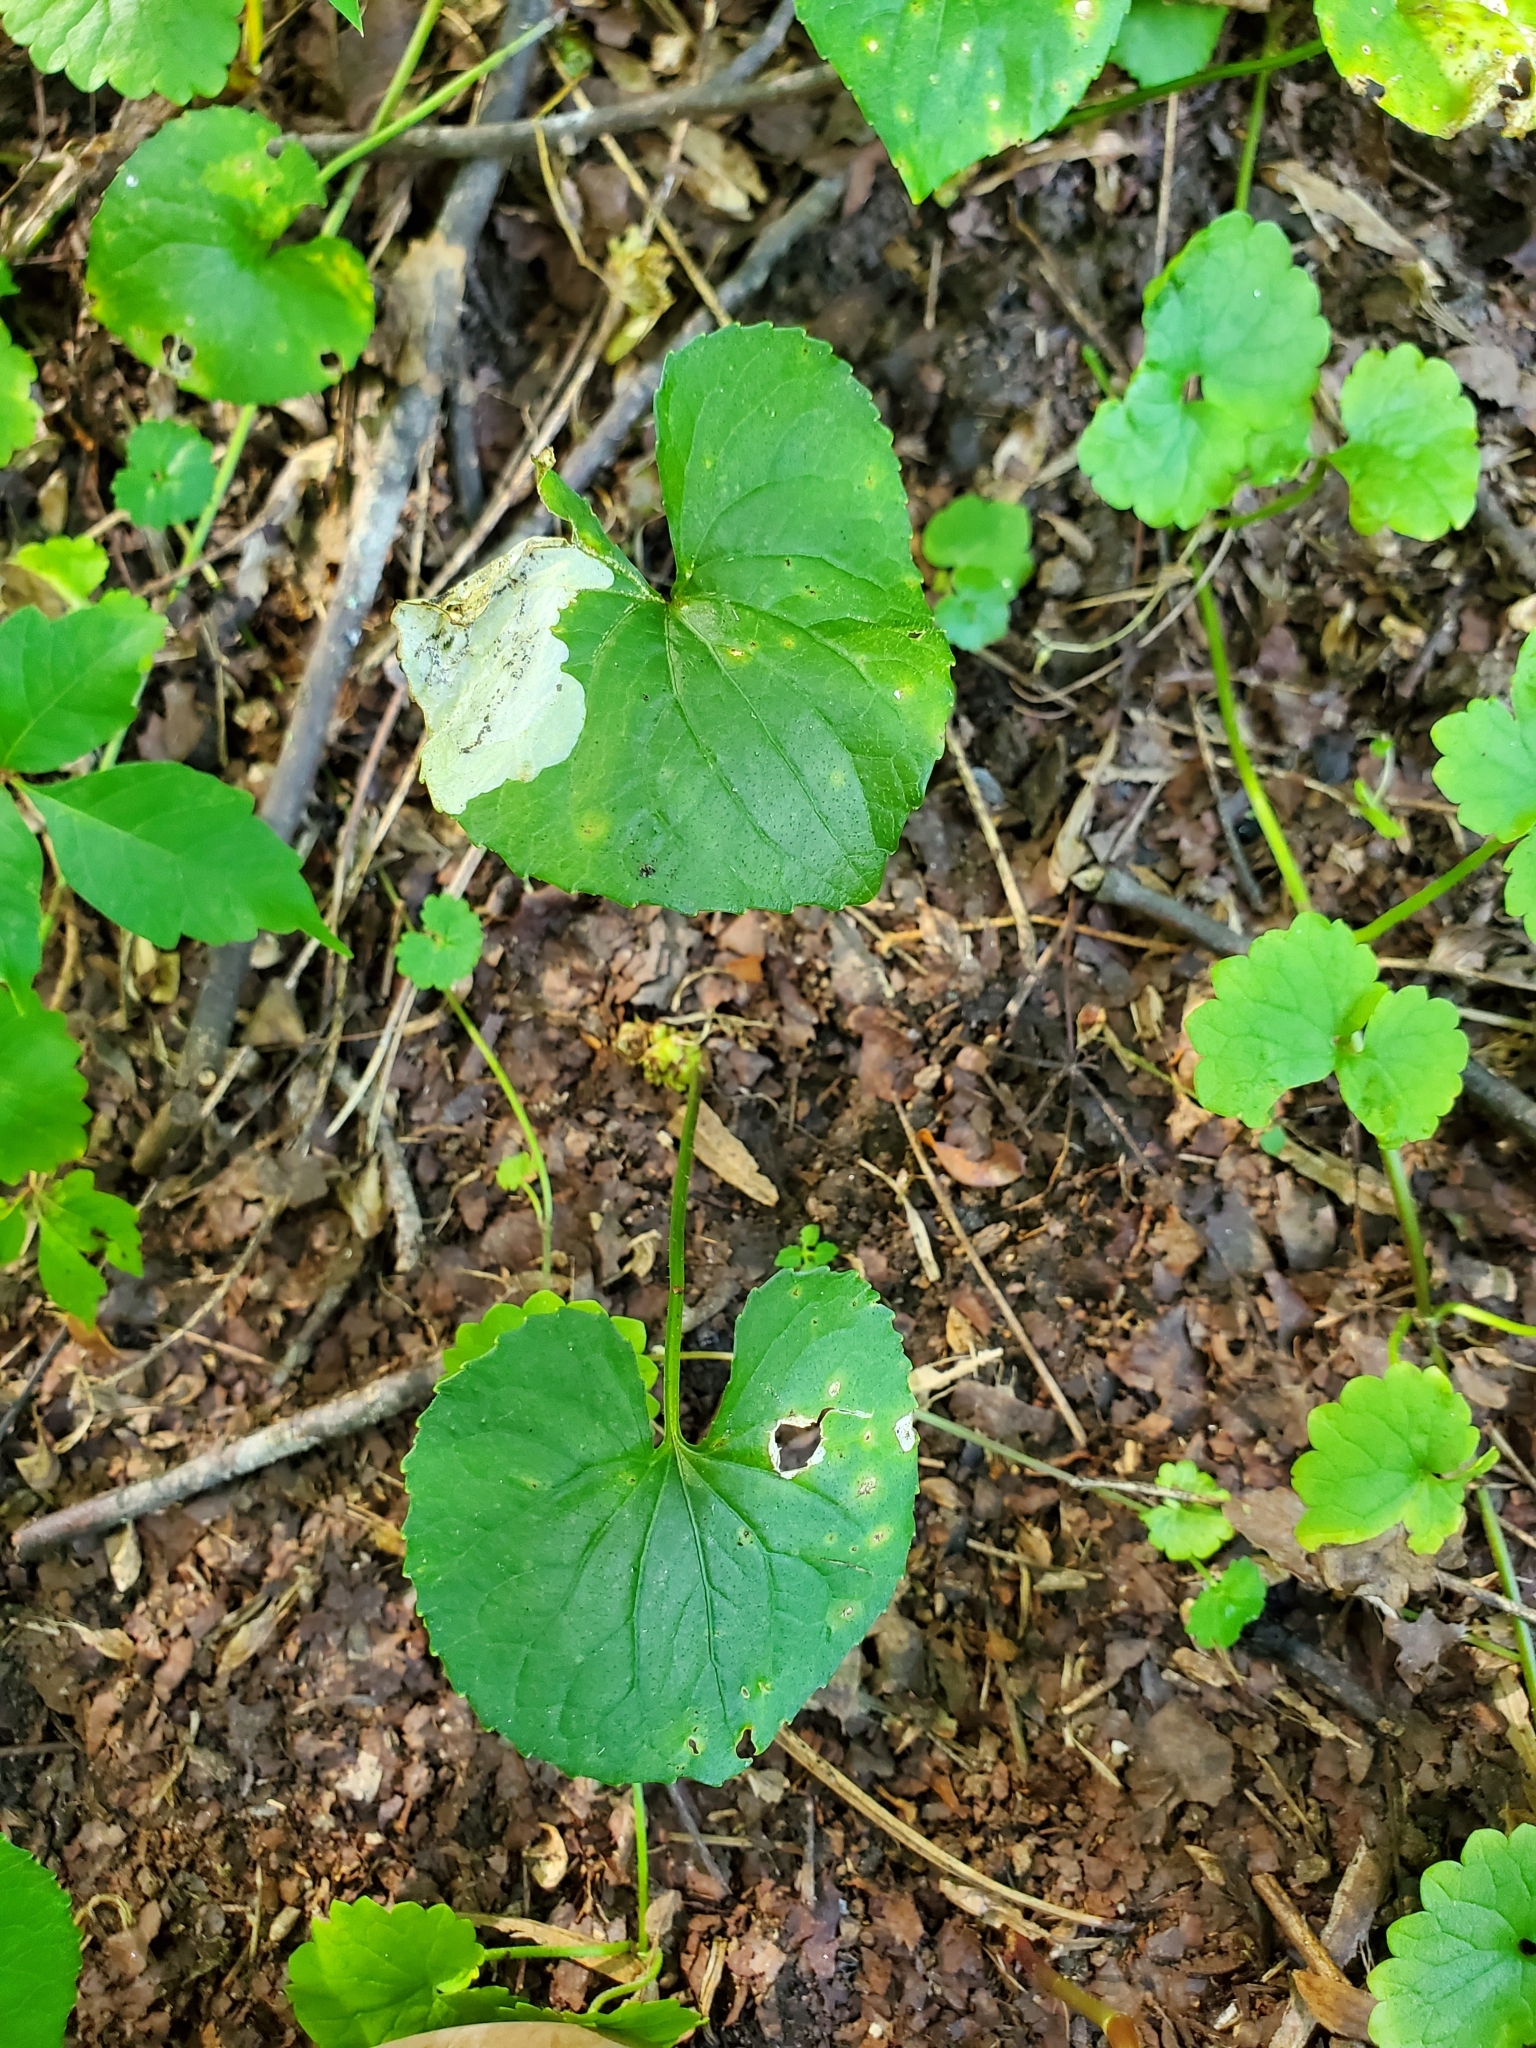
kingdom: Animalia
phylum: Arthropoda
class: Insecta
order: Hymenoptera
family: Tenthredinidae
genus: Nefusa
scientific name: Nefusa ambigua
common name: Violet leafmining sawfly
